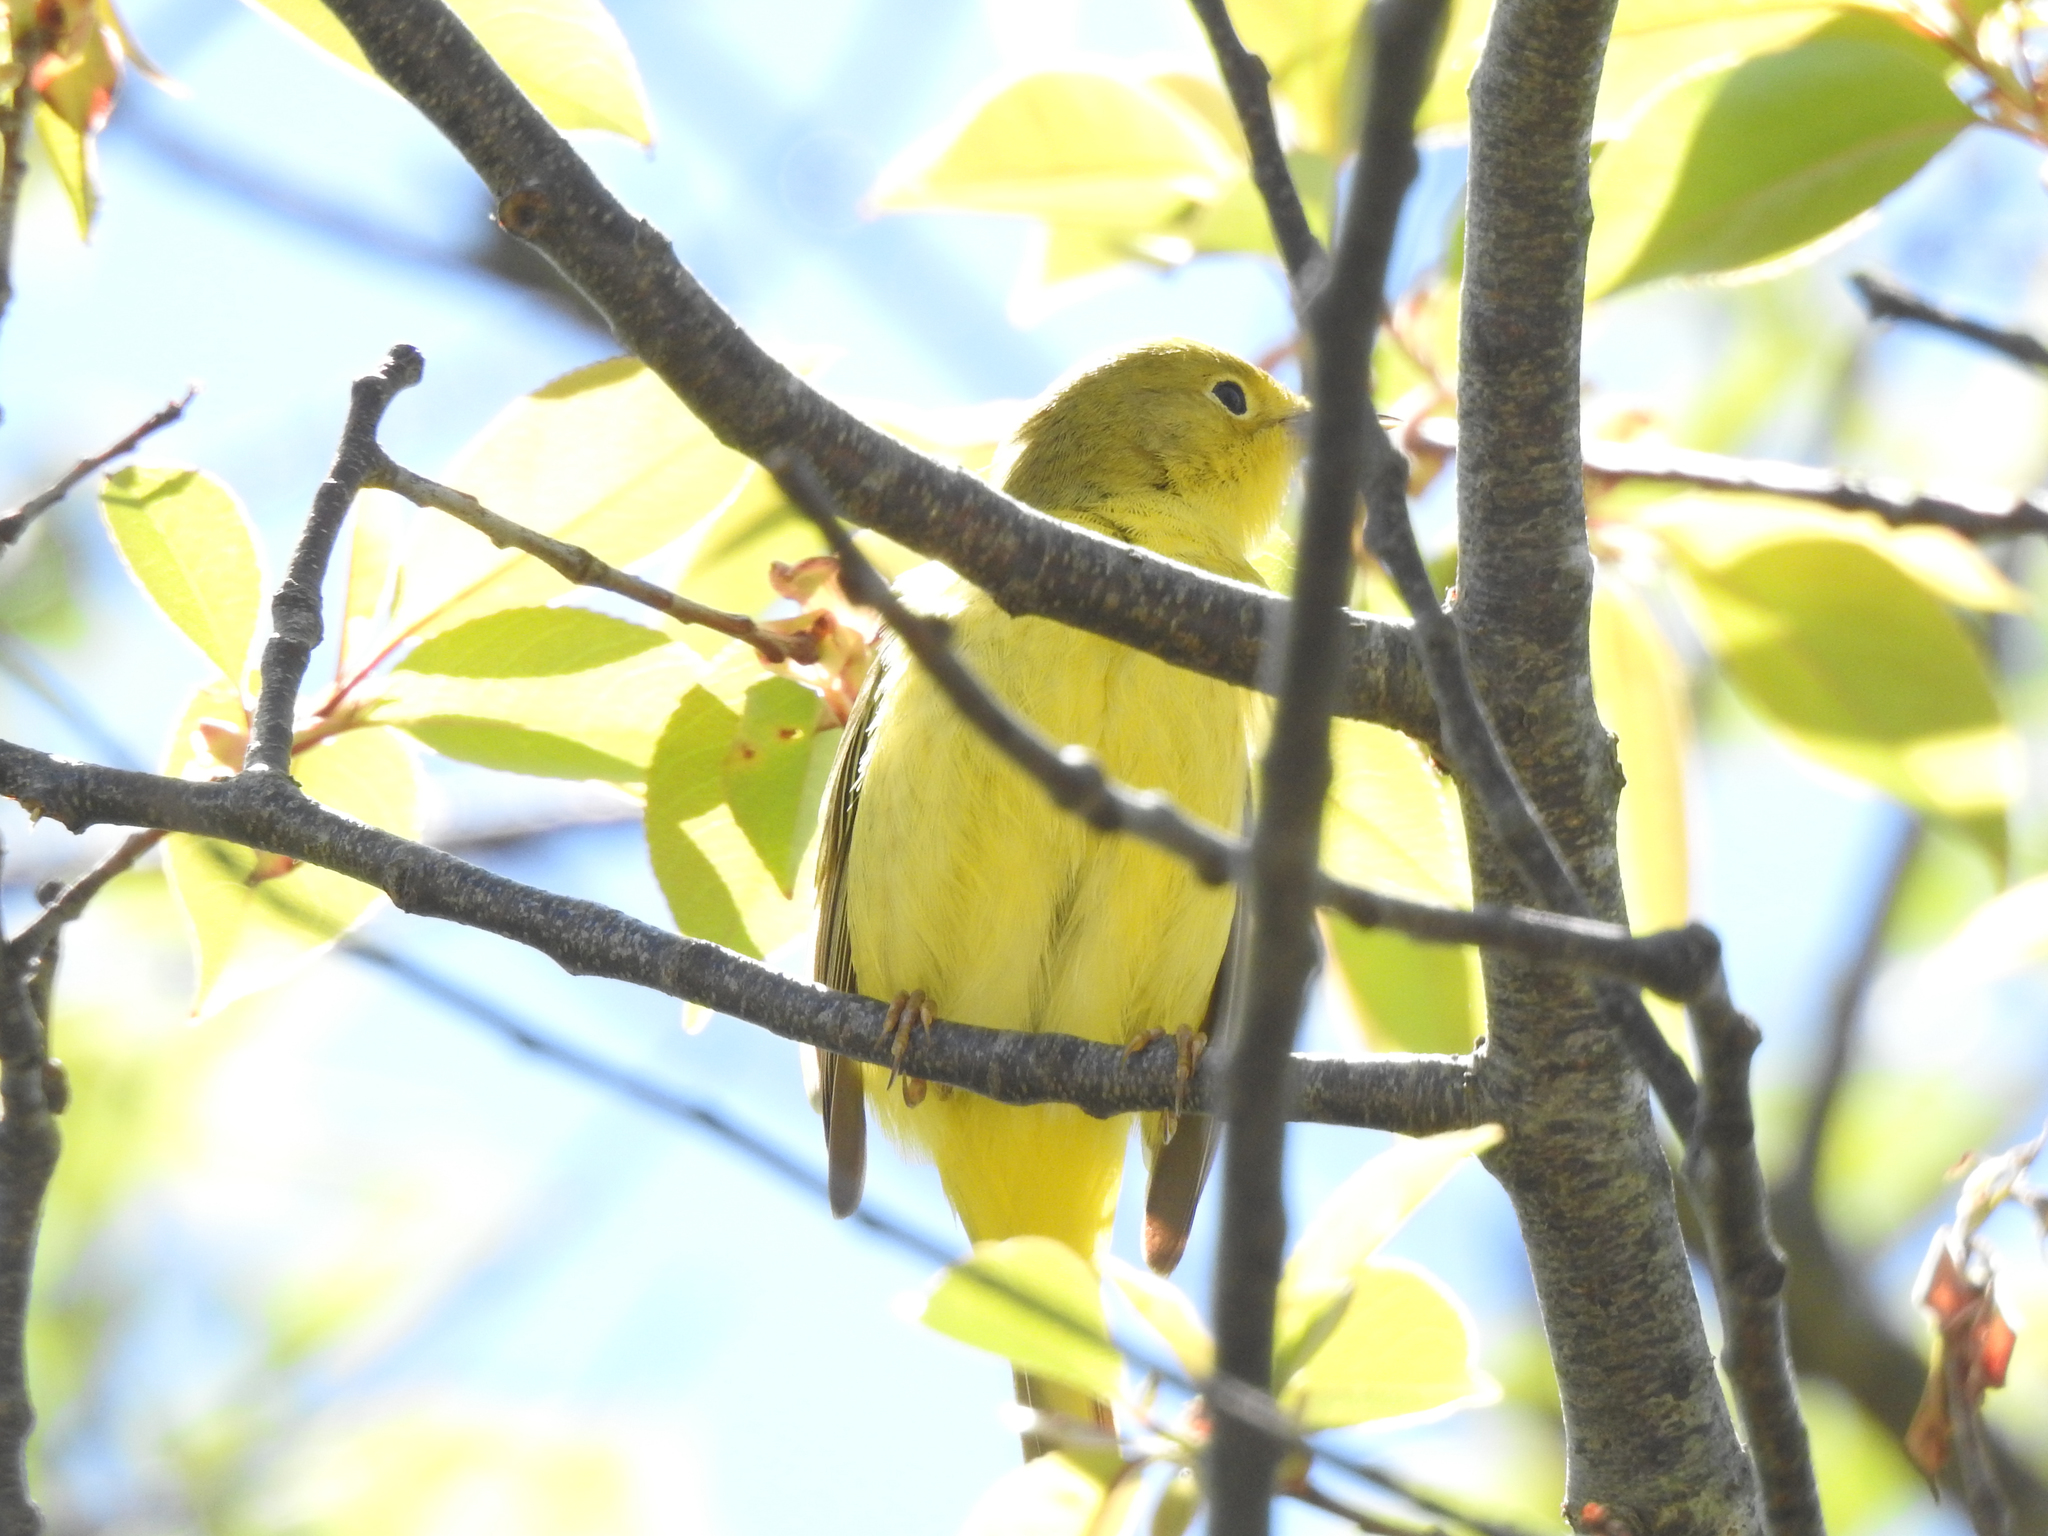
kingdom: Animalia
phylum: Chordata
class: Aves
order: Passeriformes
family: Parulidae
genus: Setophaga
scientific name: Setophaga petechia
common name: Yellow warbler
